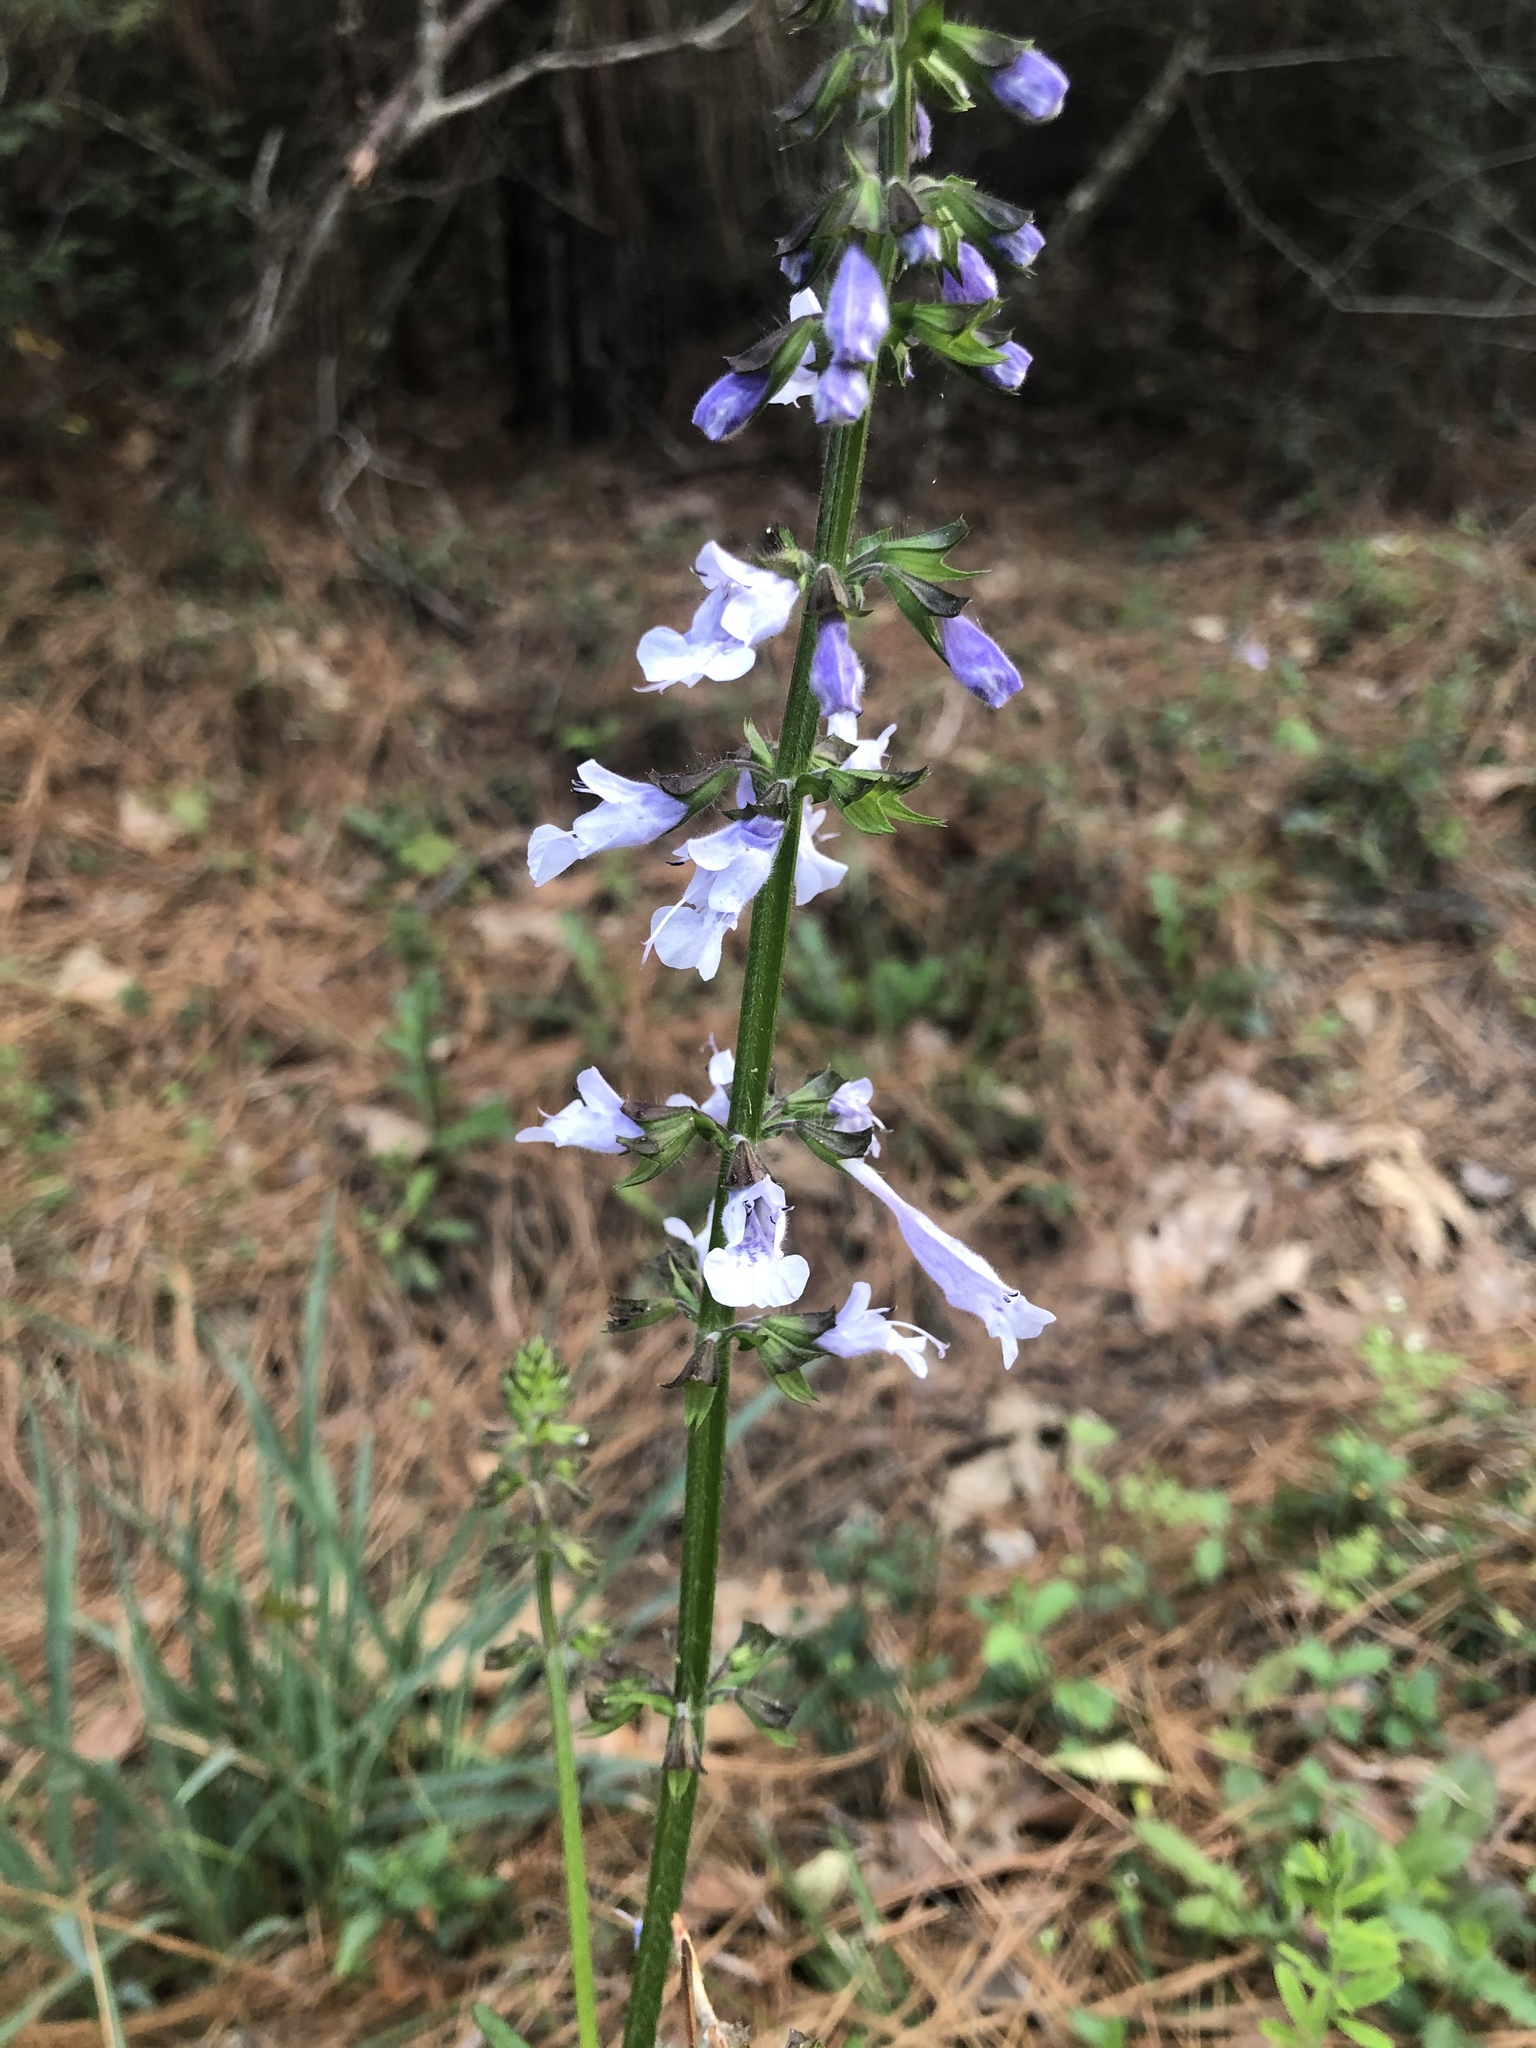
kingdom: Plantae
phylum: Tracheophyta
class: Magnoliopsida
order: Lamiales
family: Lamiaceae
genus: Salvia
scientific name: Salvia lyrata
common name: Cancerweed
